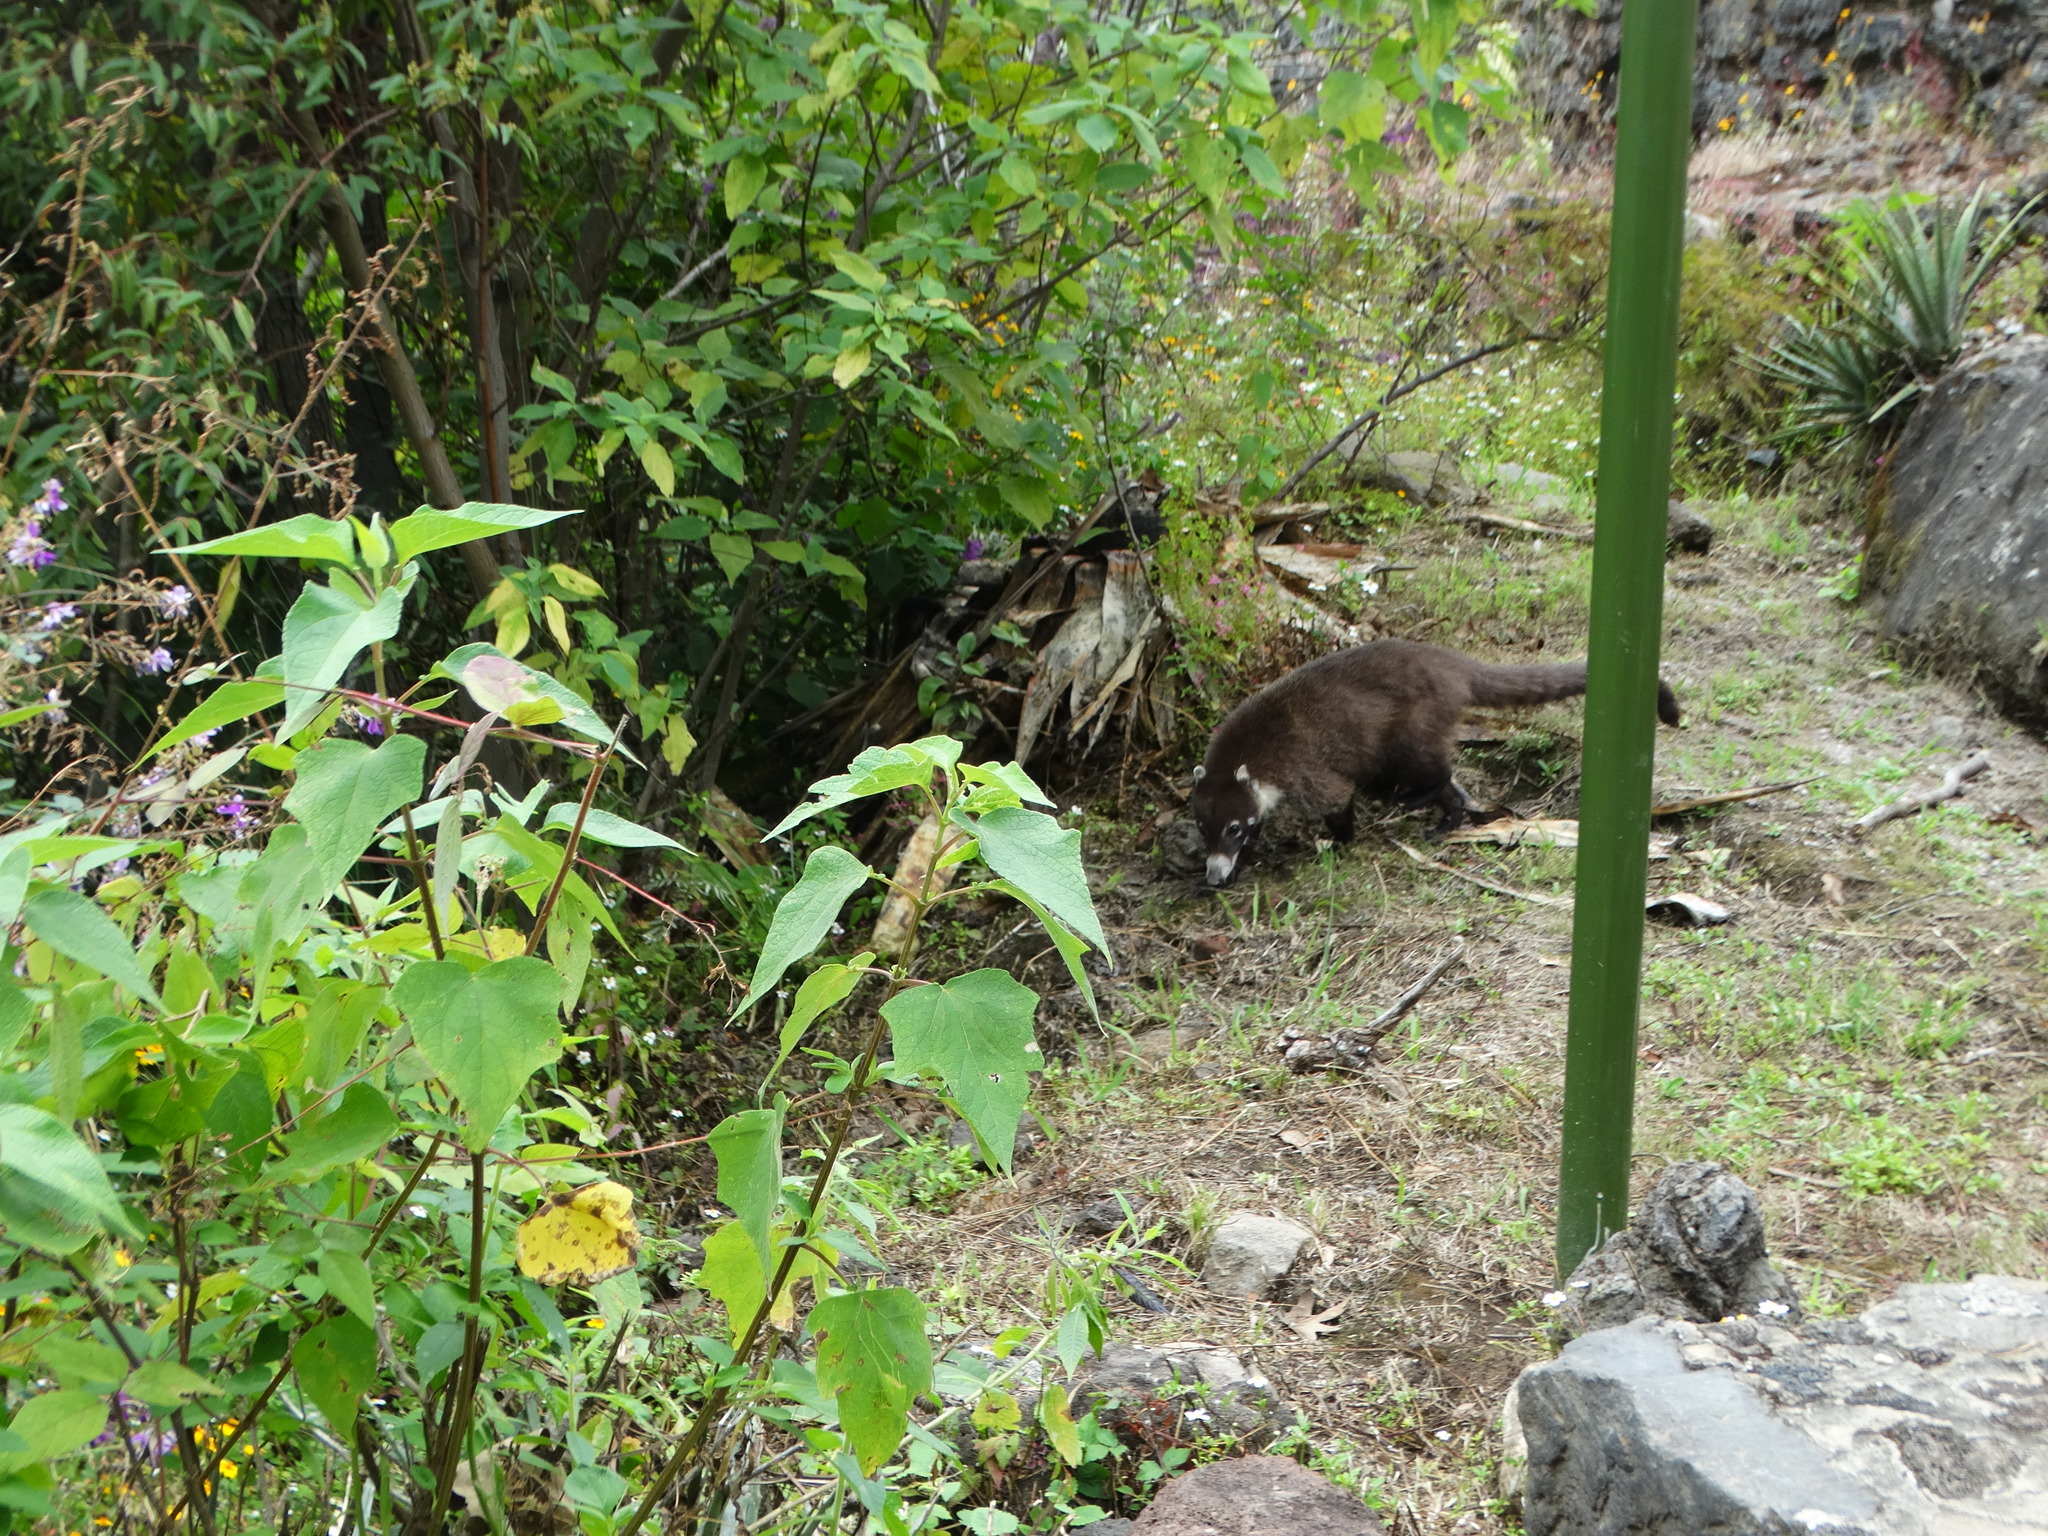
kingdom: Animalia
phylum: Chordata
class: Mammalia
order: Carnivora
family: Procyonidae
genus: Nasua
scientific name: Nasua narica
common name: White-nosed coati
